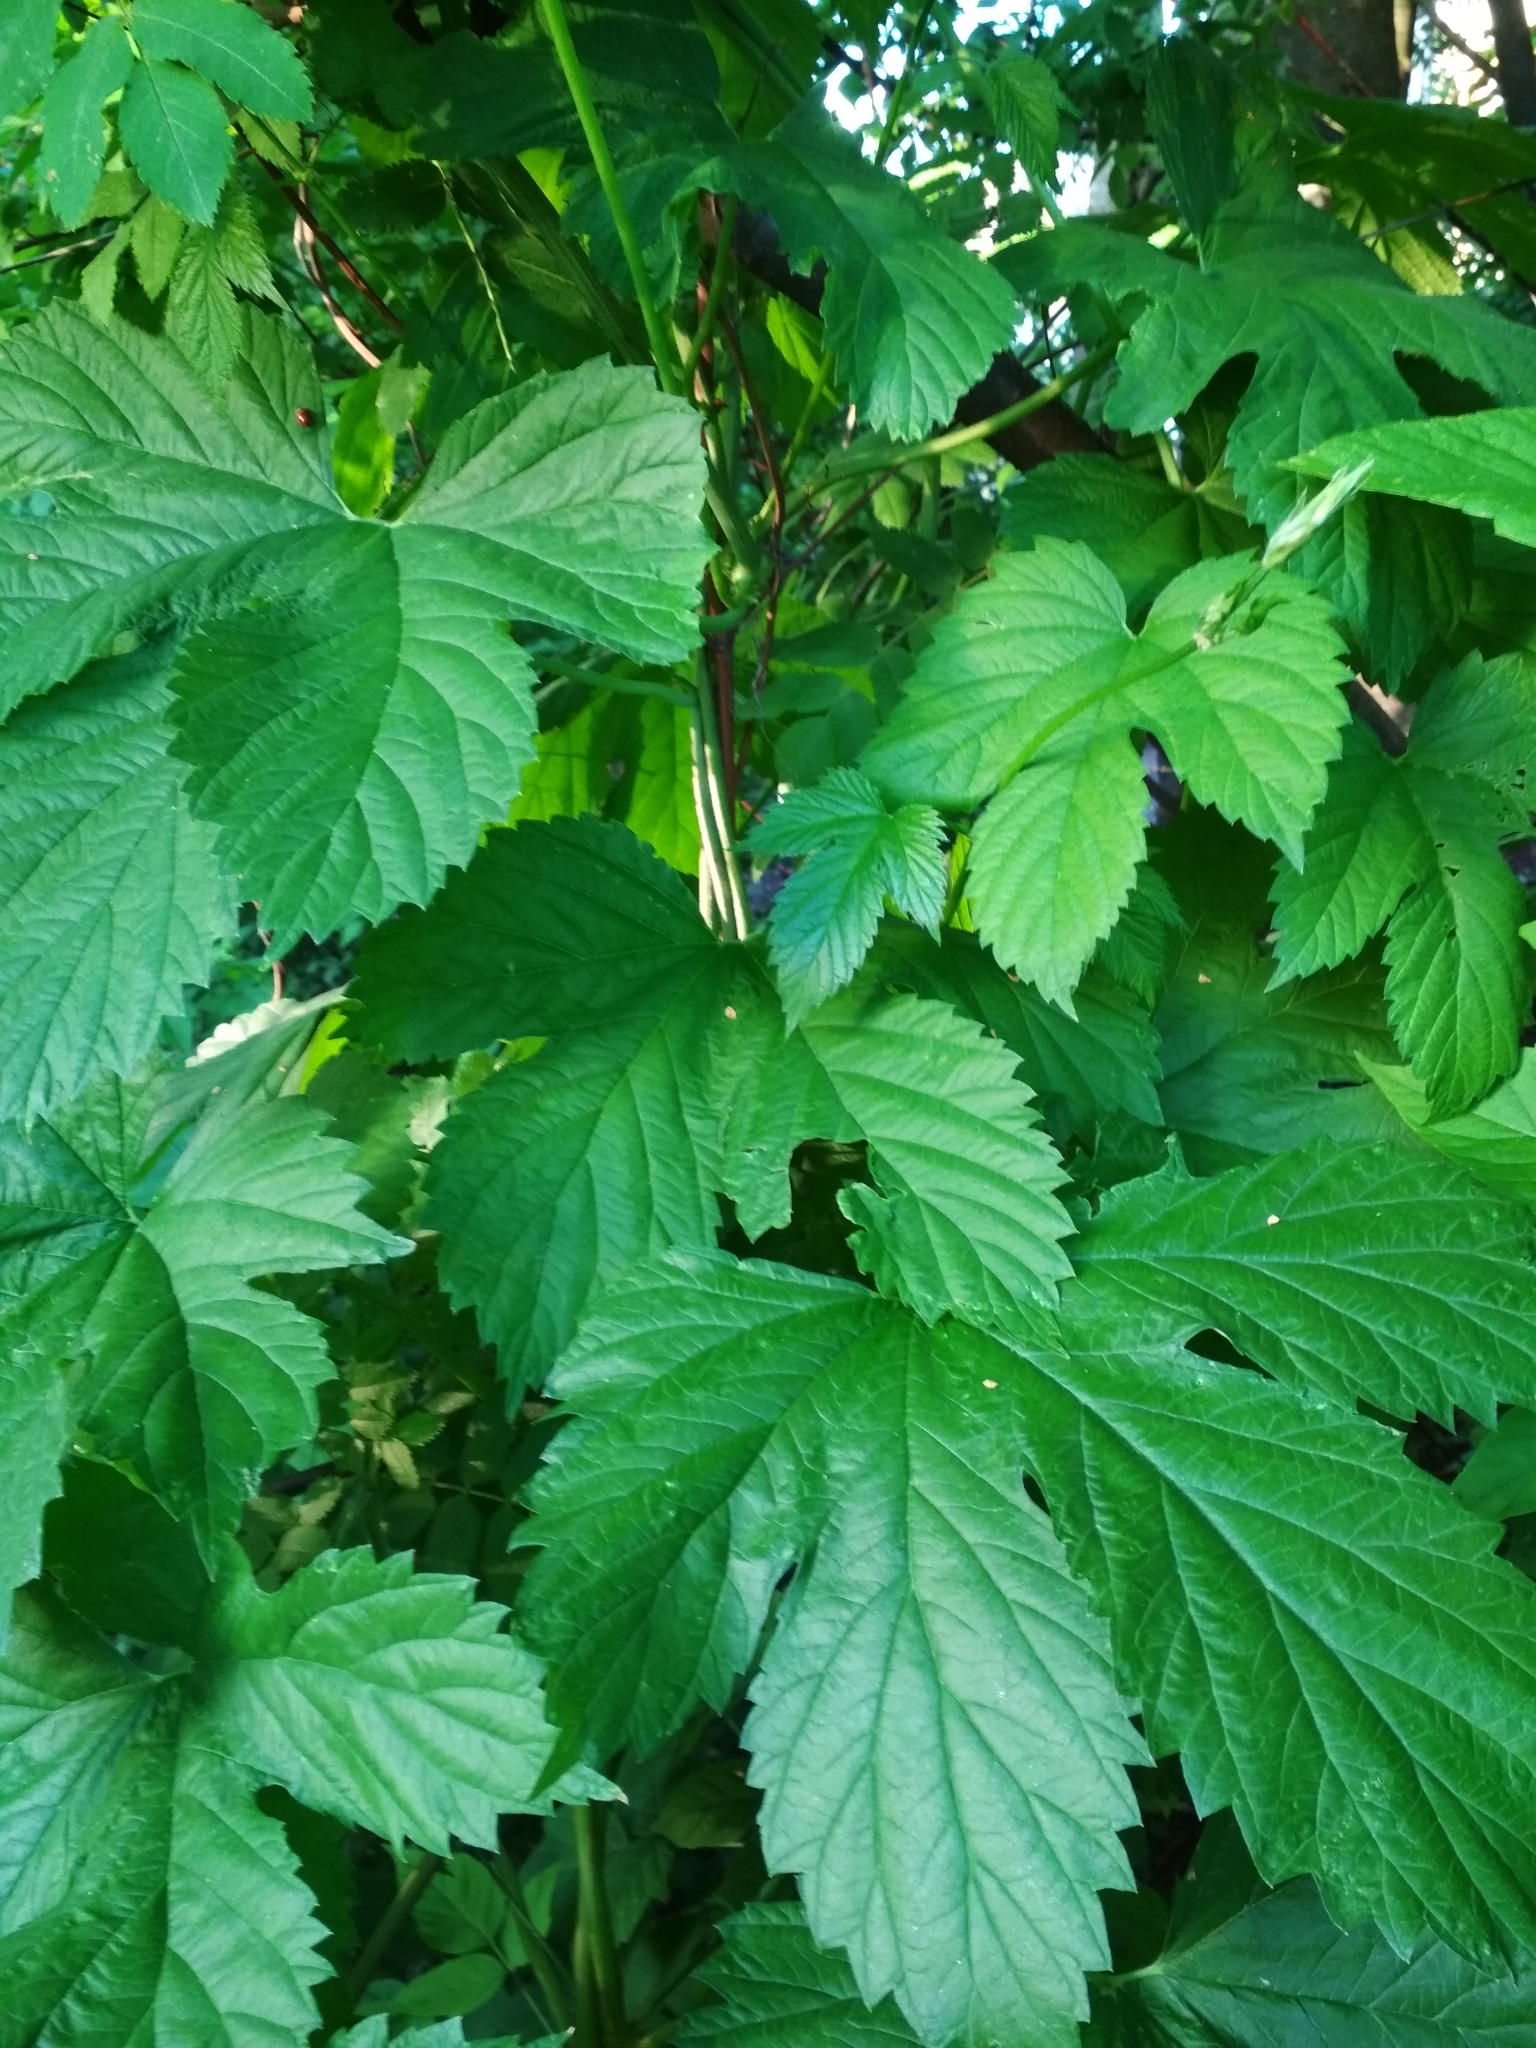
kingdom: Plantae
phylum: Tracheophyta
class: Magnoliopsida
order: Rosales
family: Cannabaceae
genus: Humulus
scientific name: Humulus lupulus
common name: Hop
